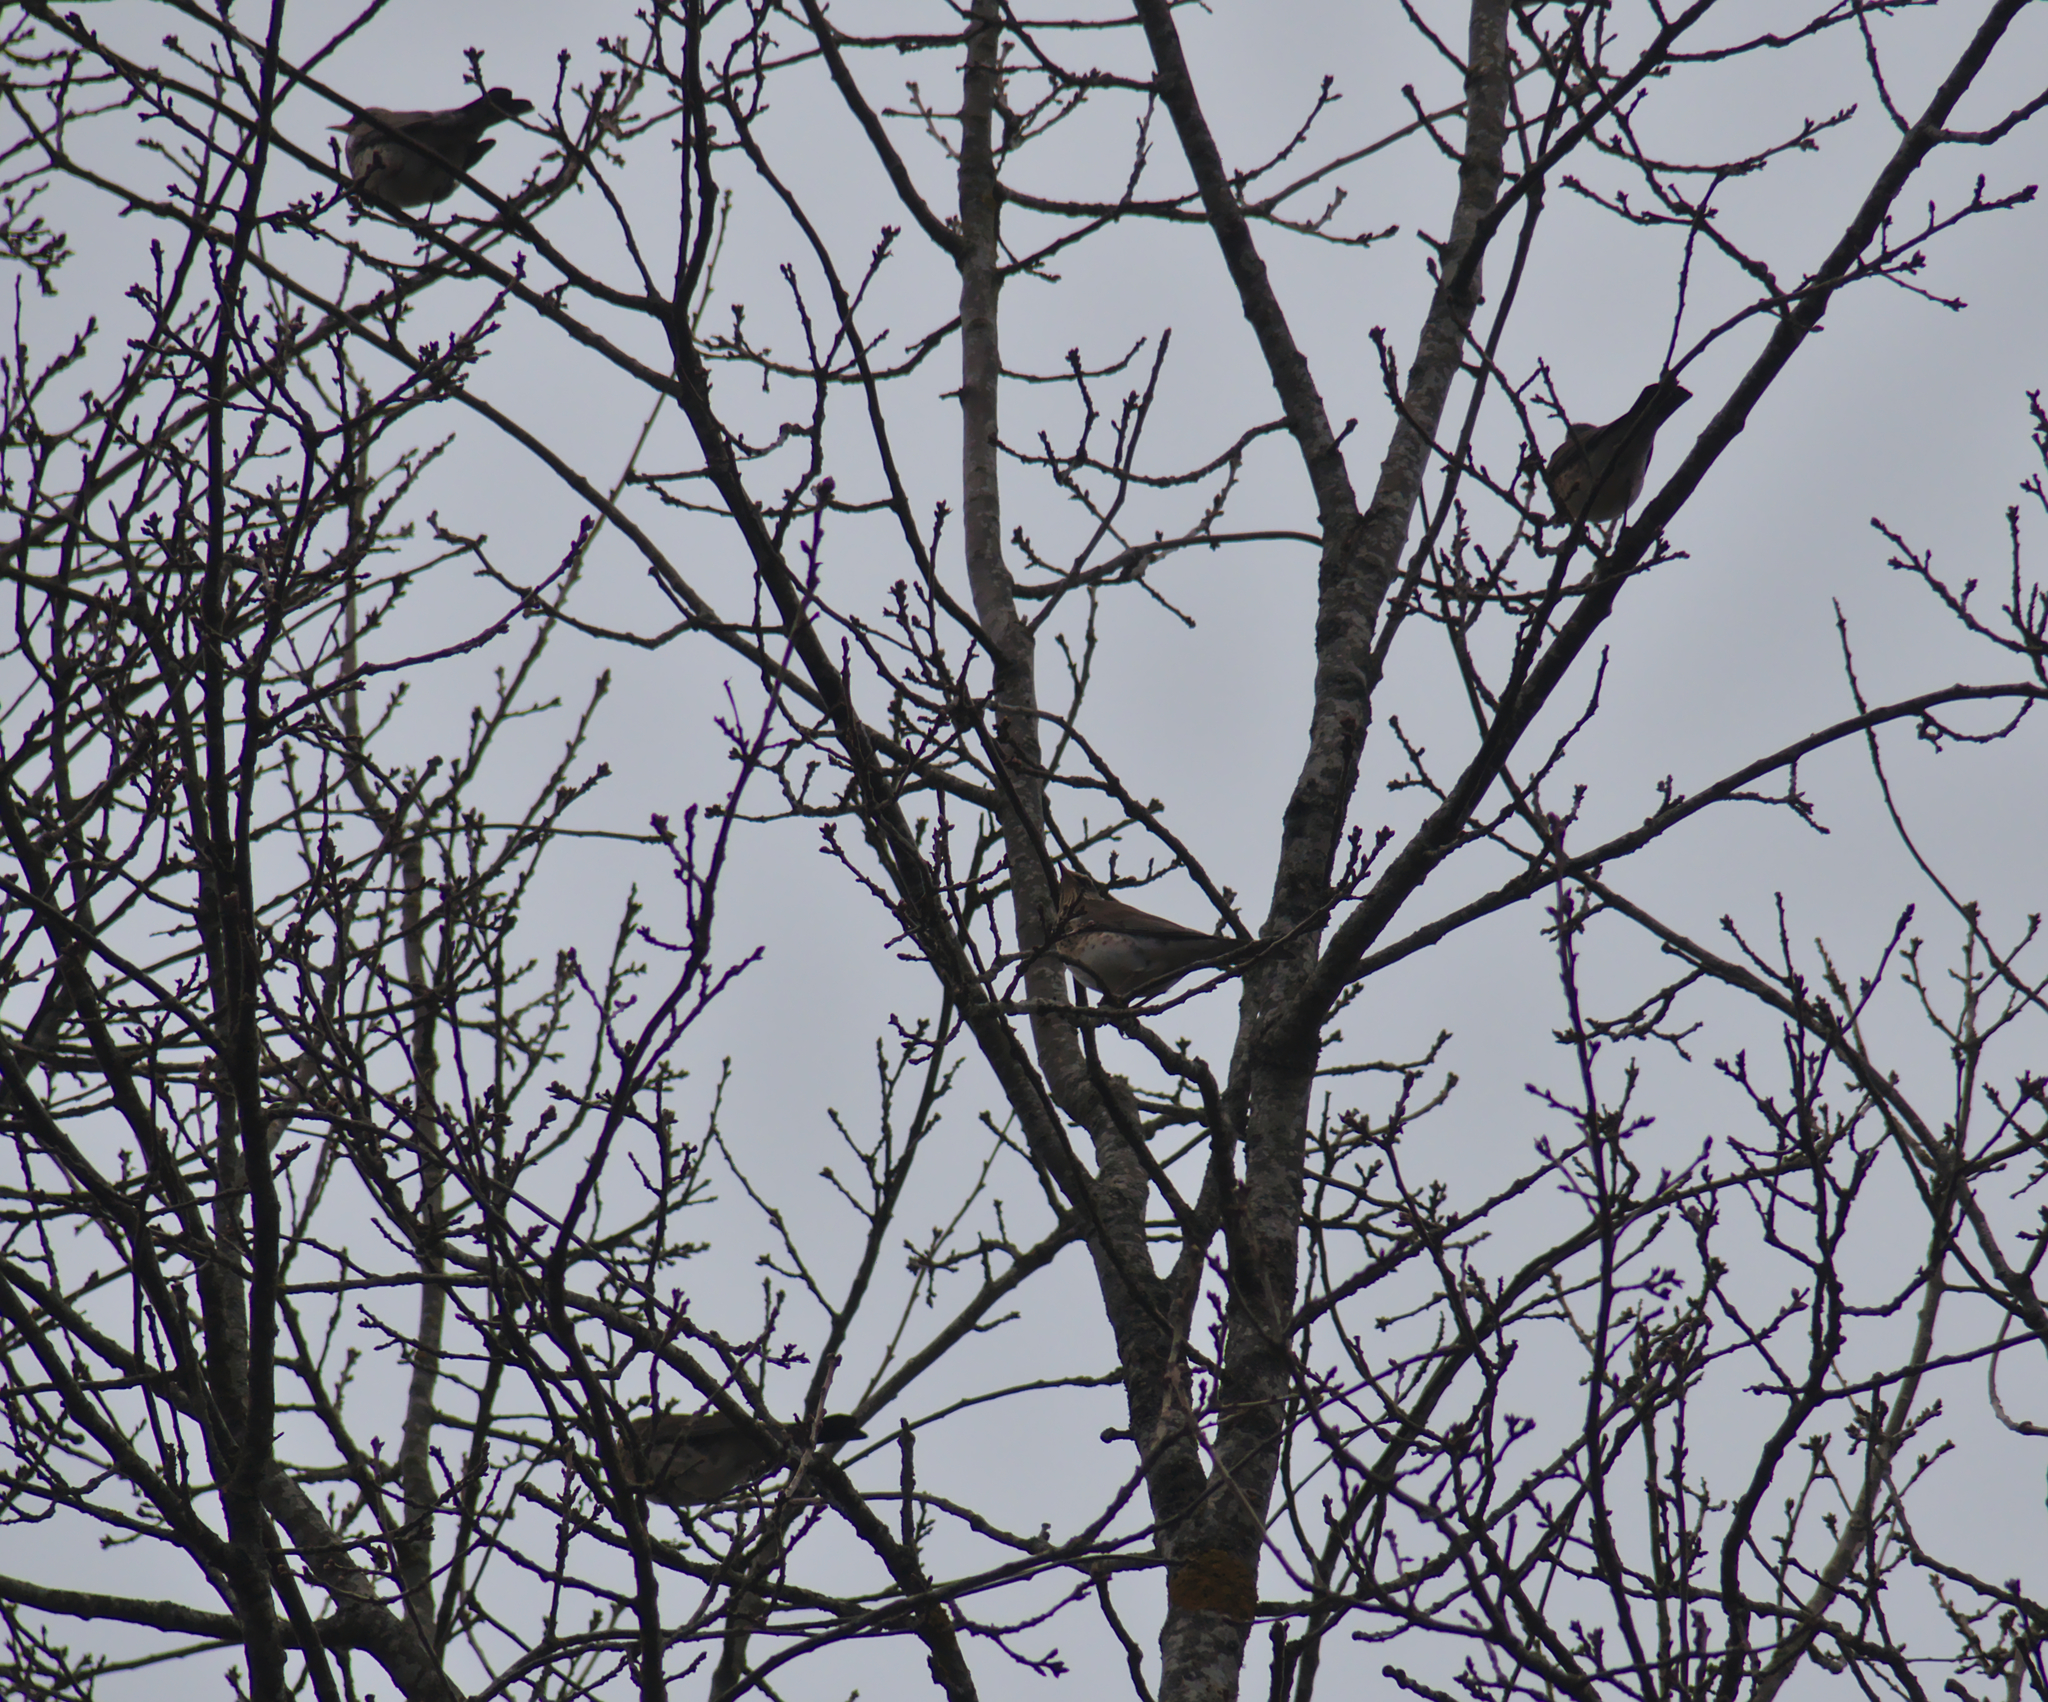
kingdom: Animalia
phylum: Chordata
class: Aves
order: Passeriformes
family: Turdidae
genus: Turdus
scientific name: Turdus pilaris
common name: Fieldfare
